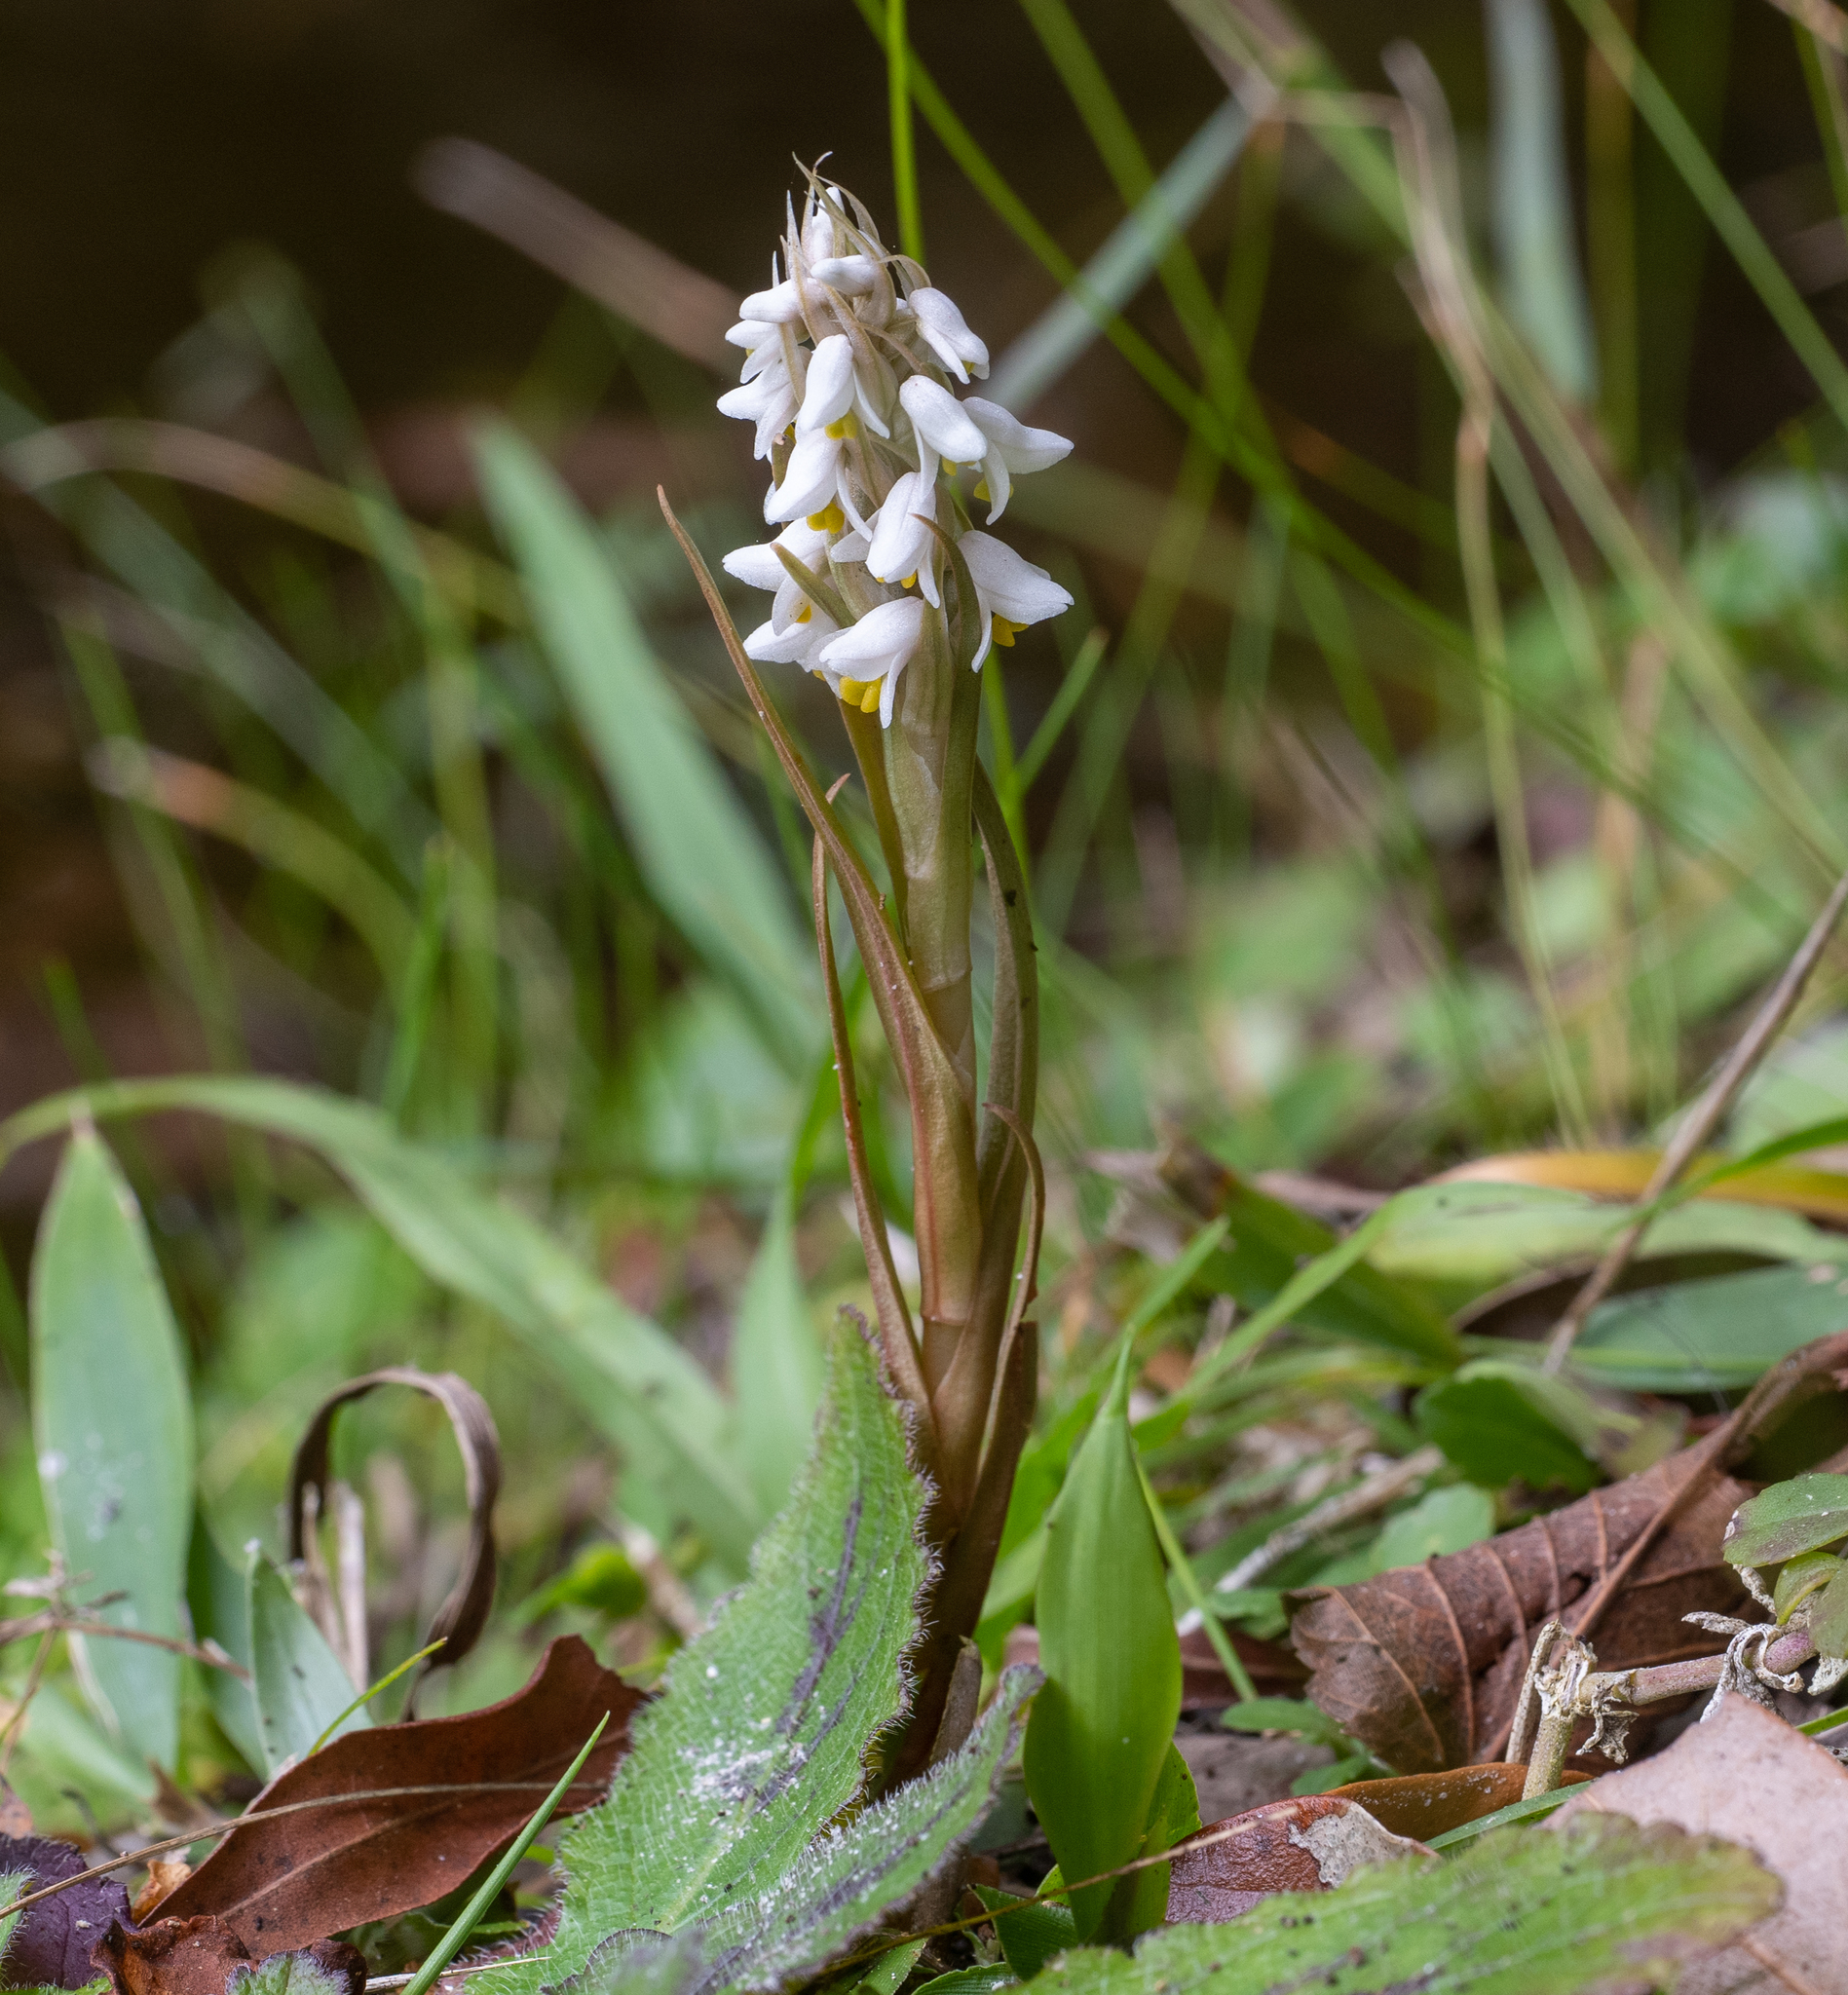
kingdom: Plantae
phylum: Tracheophyta
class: Liliopsida
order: Asparagales
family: Orchidaceae
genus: Zeuxine
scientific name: Zeuxine strateumatica
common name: Soldier's orchid
